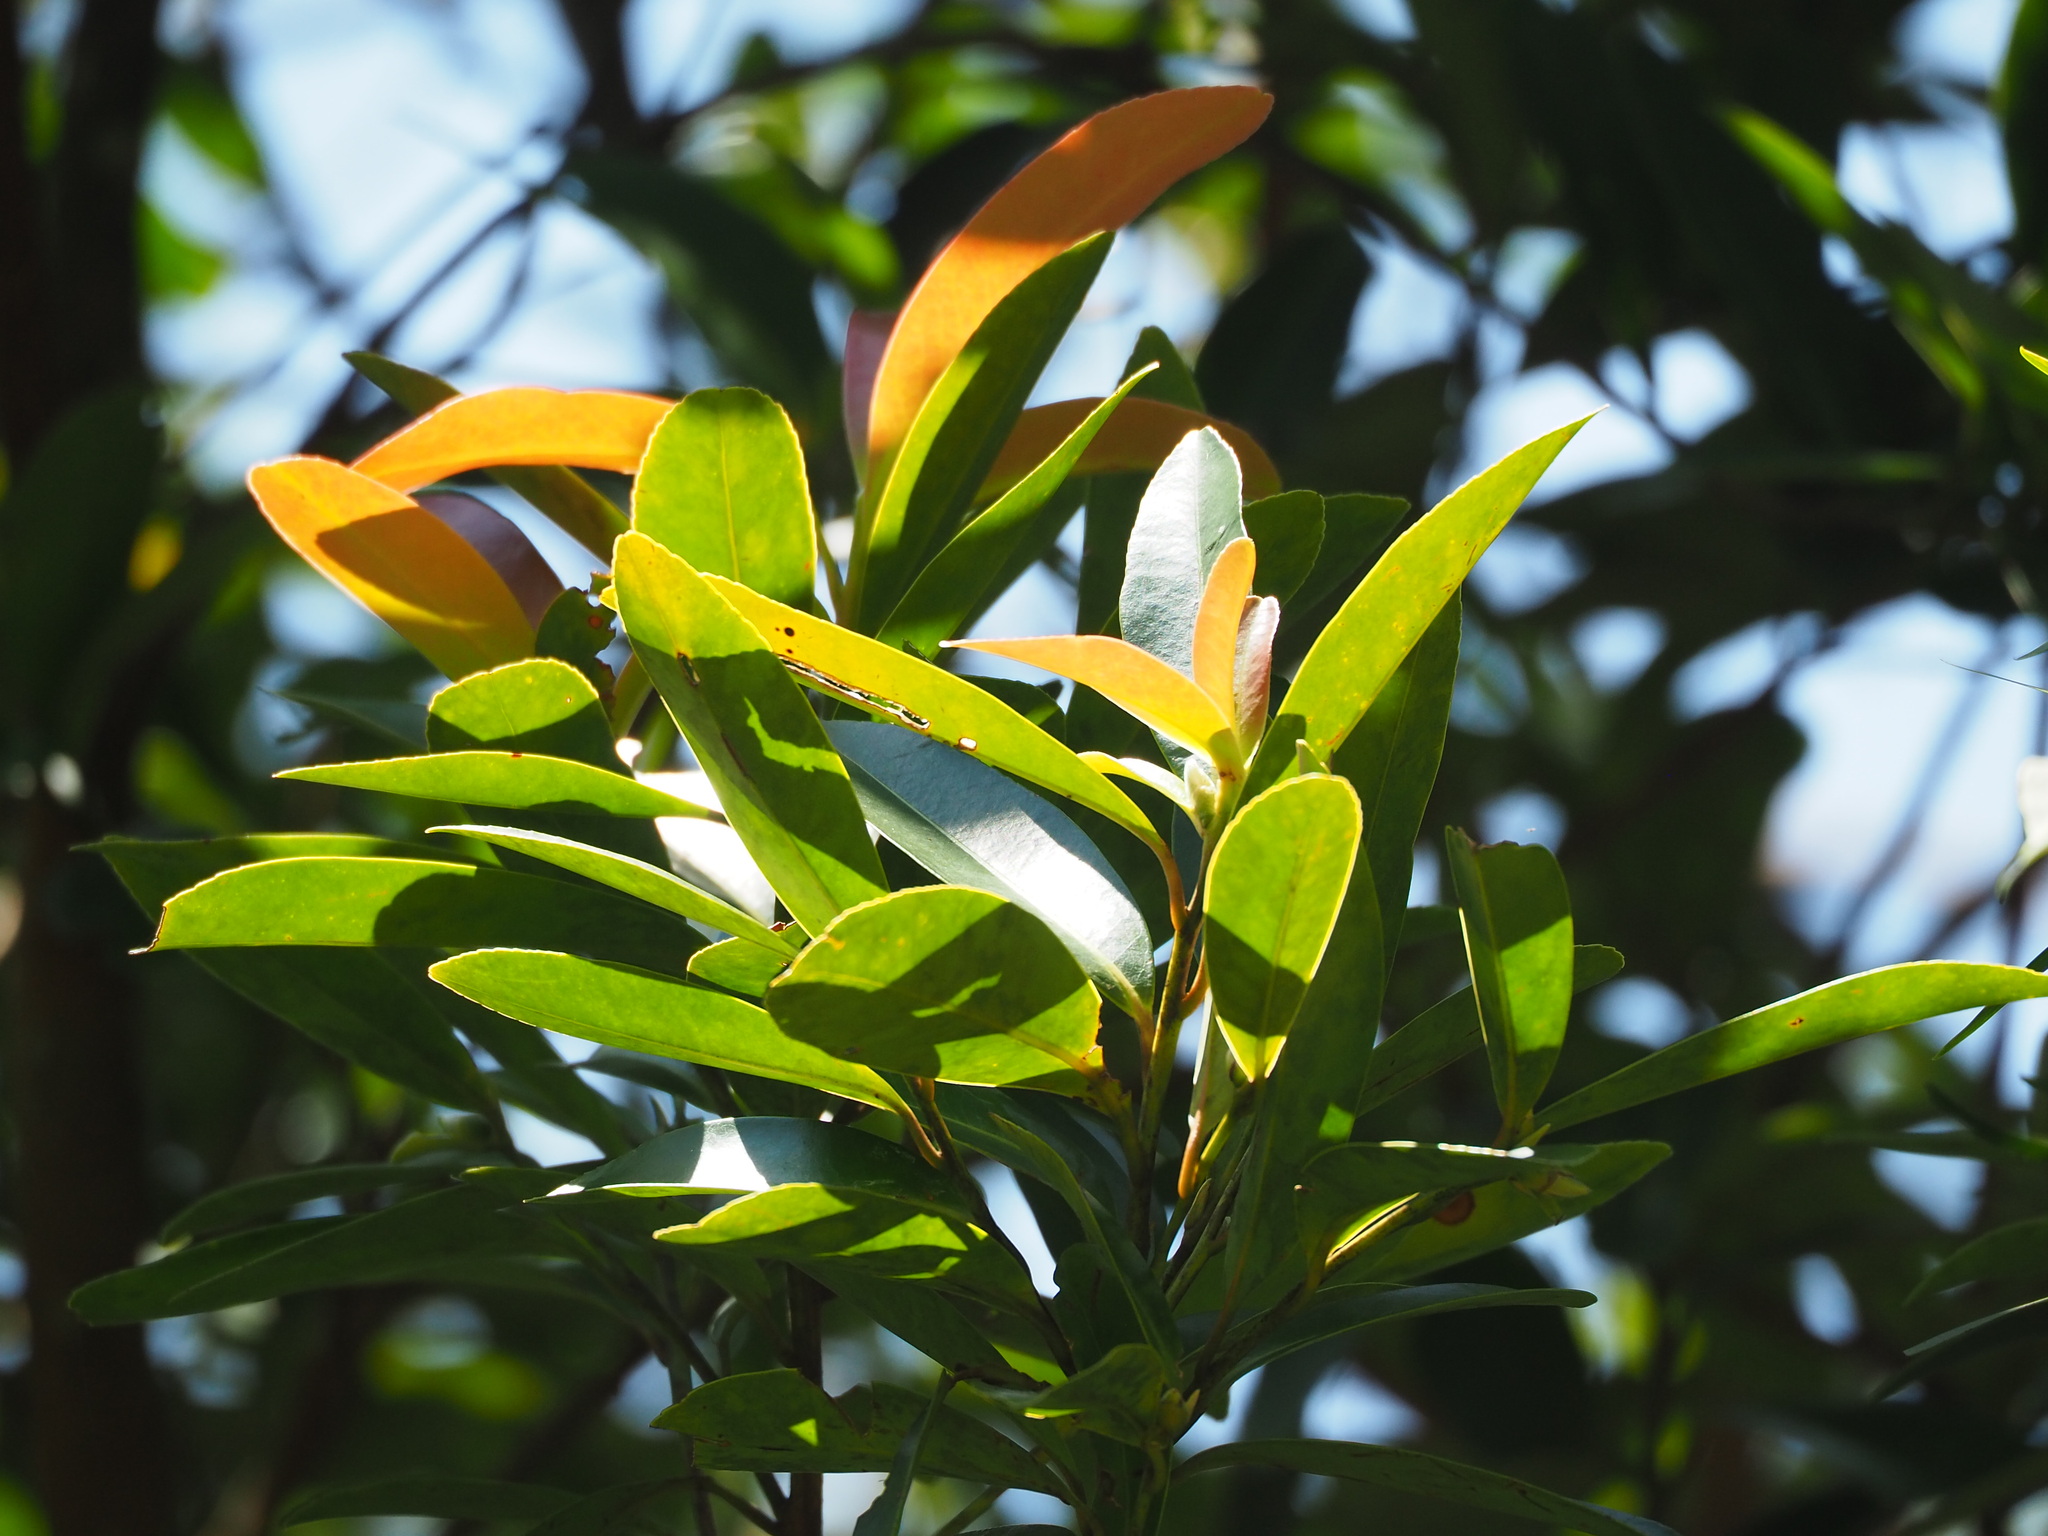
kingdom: Plantae
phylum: Tracheophyta
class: Magnoliopsida
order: Ericales
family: Theaceae
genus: Polyspora
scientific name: Polyspora axillaris
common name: Fried egg tree
